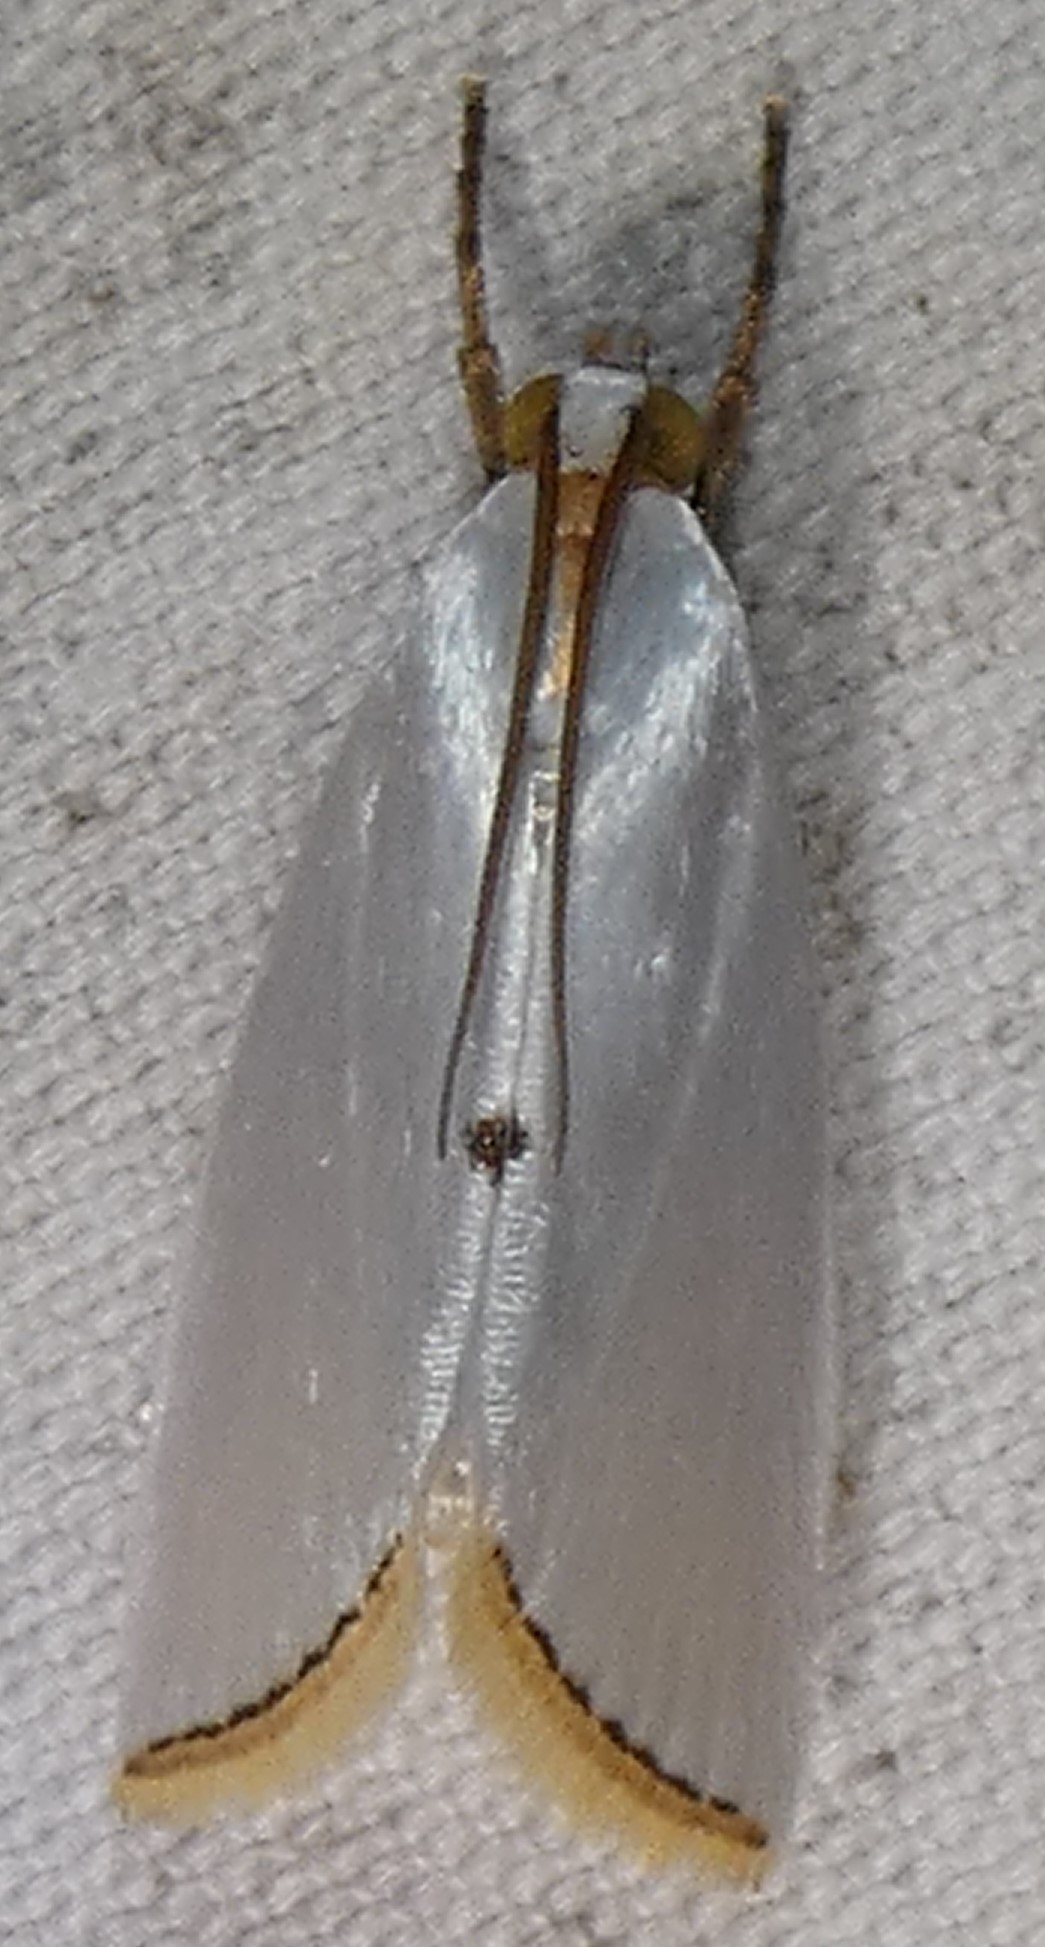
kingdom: Animalia
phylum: Arthropoda
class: Insecta
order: Lepidoptera
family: Crambidae
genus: Argyria
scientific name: Argyria nivalis
